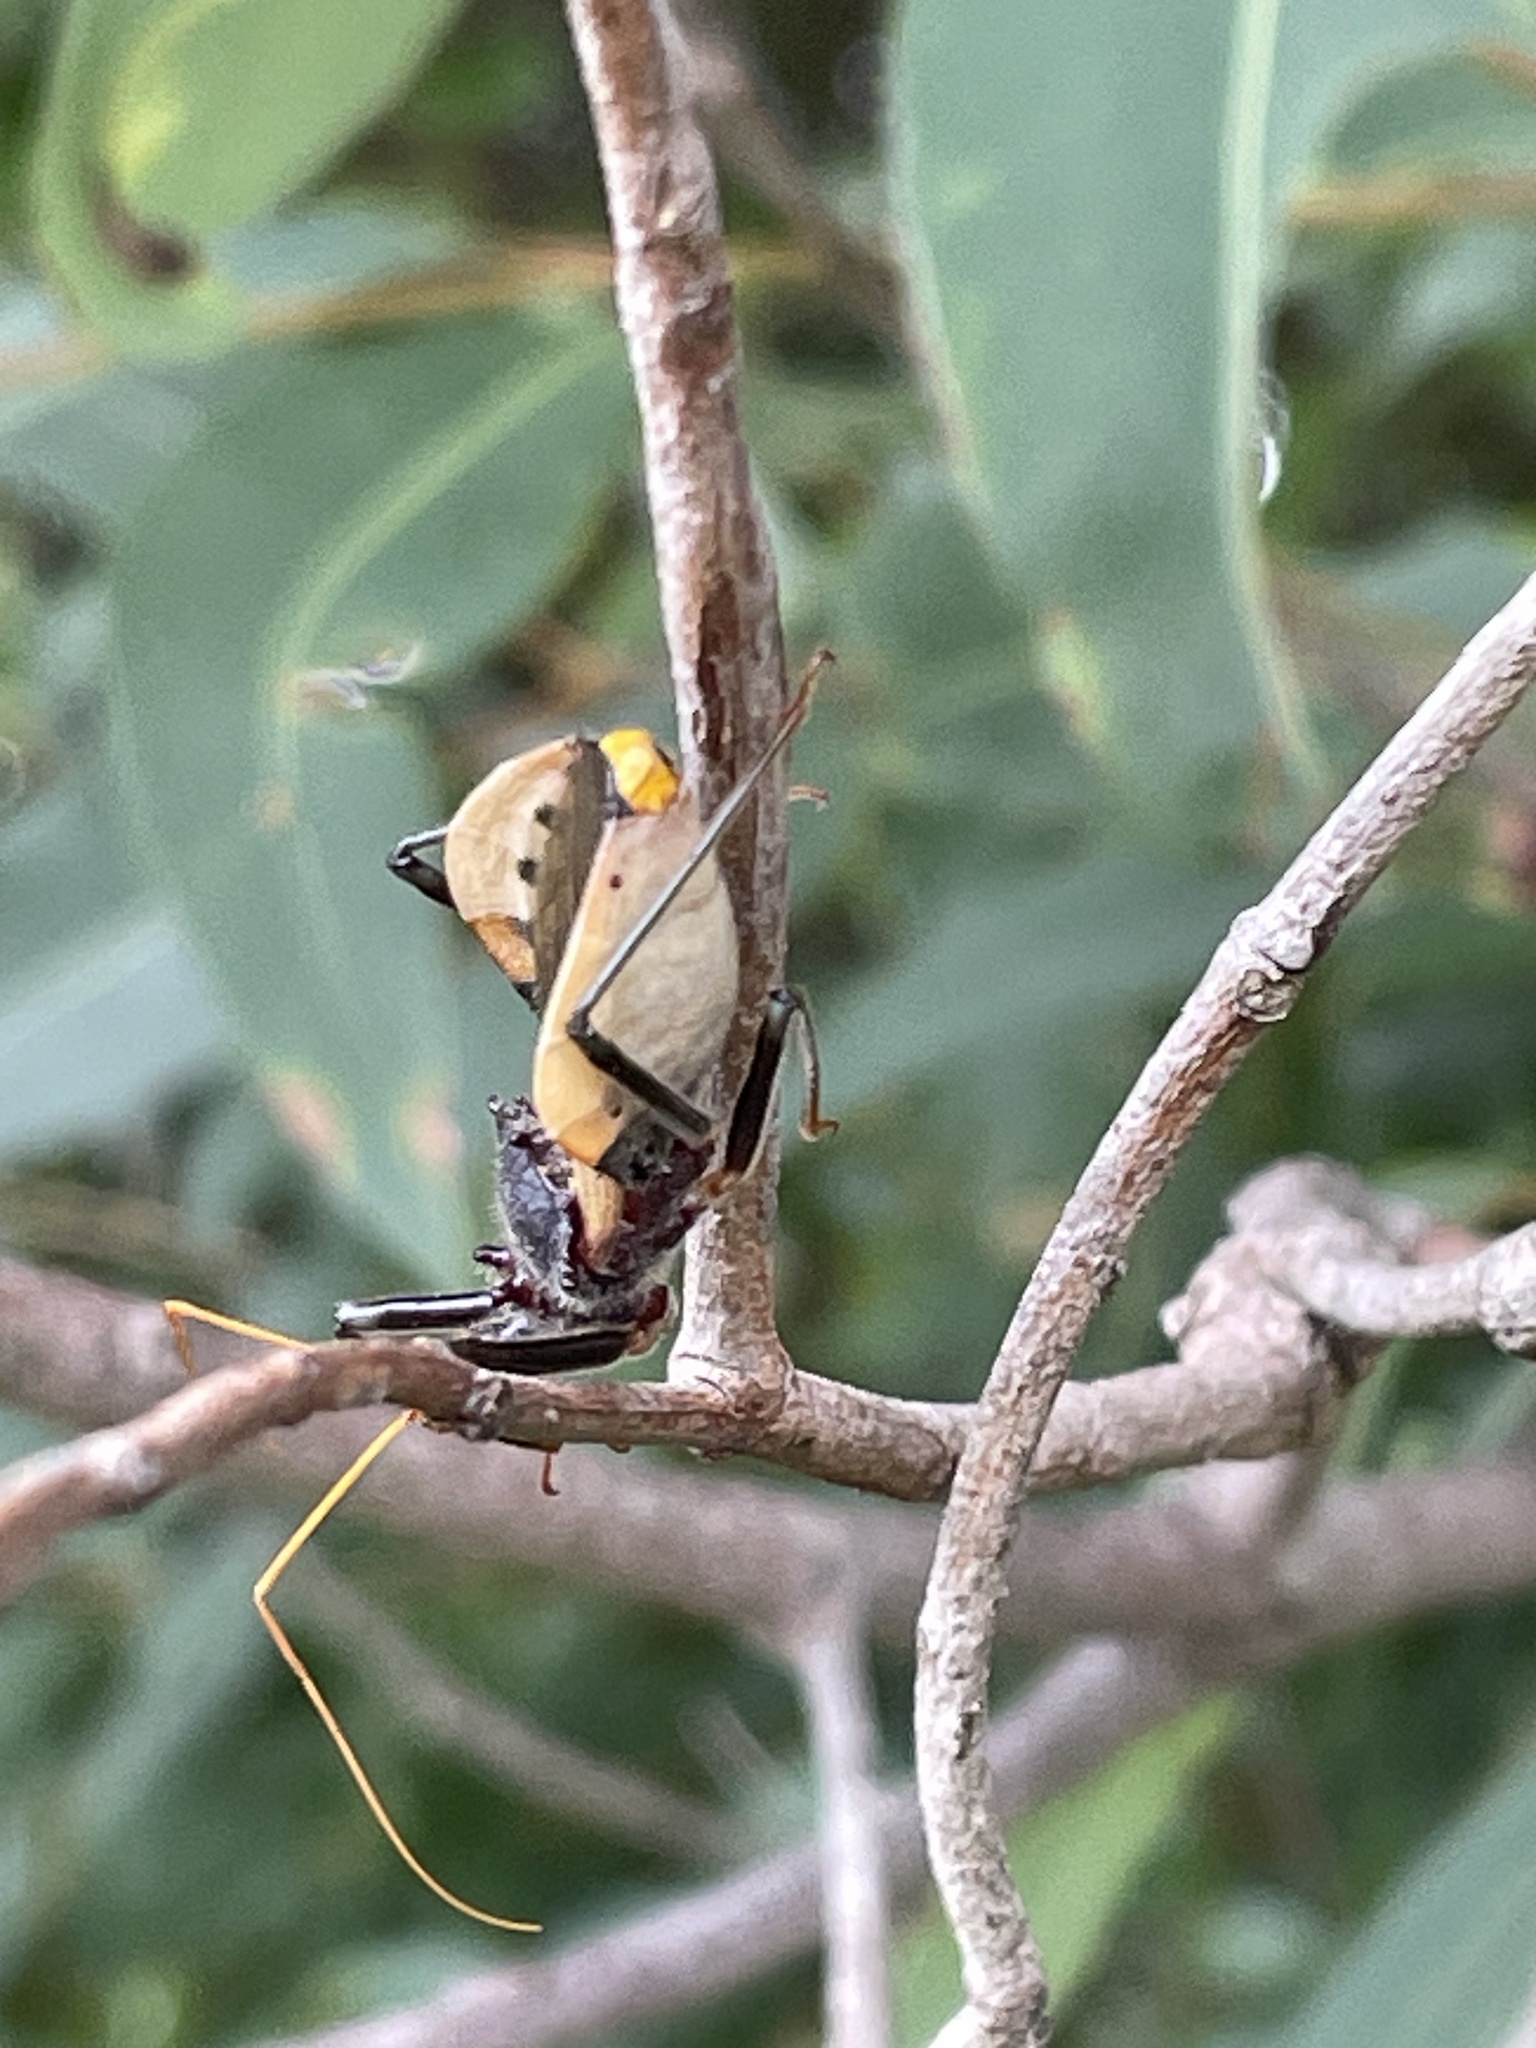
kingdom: Animalia
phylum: Arthropoda
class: Insecta
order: Hemiptera
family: Reduviidae
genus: Pristhesancus
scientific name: Pristhesancus plagipennis
